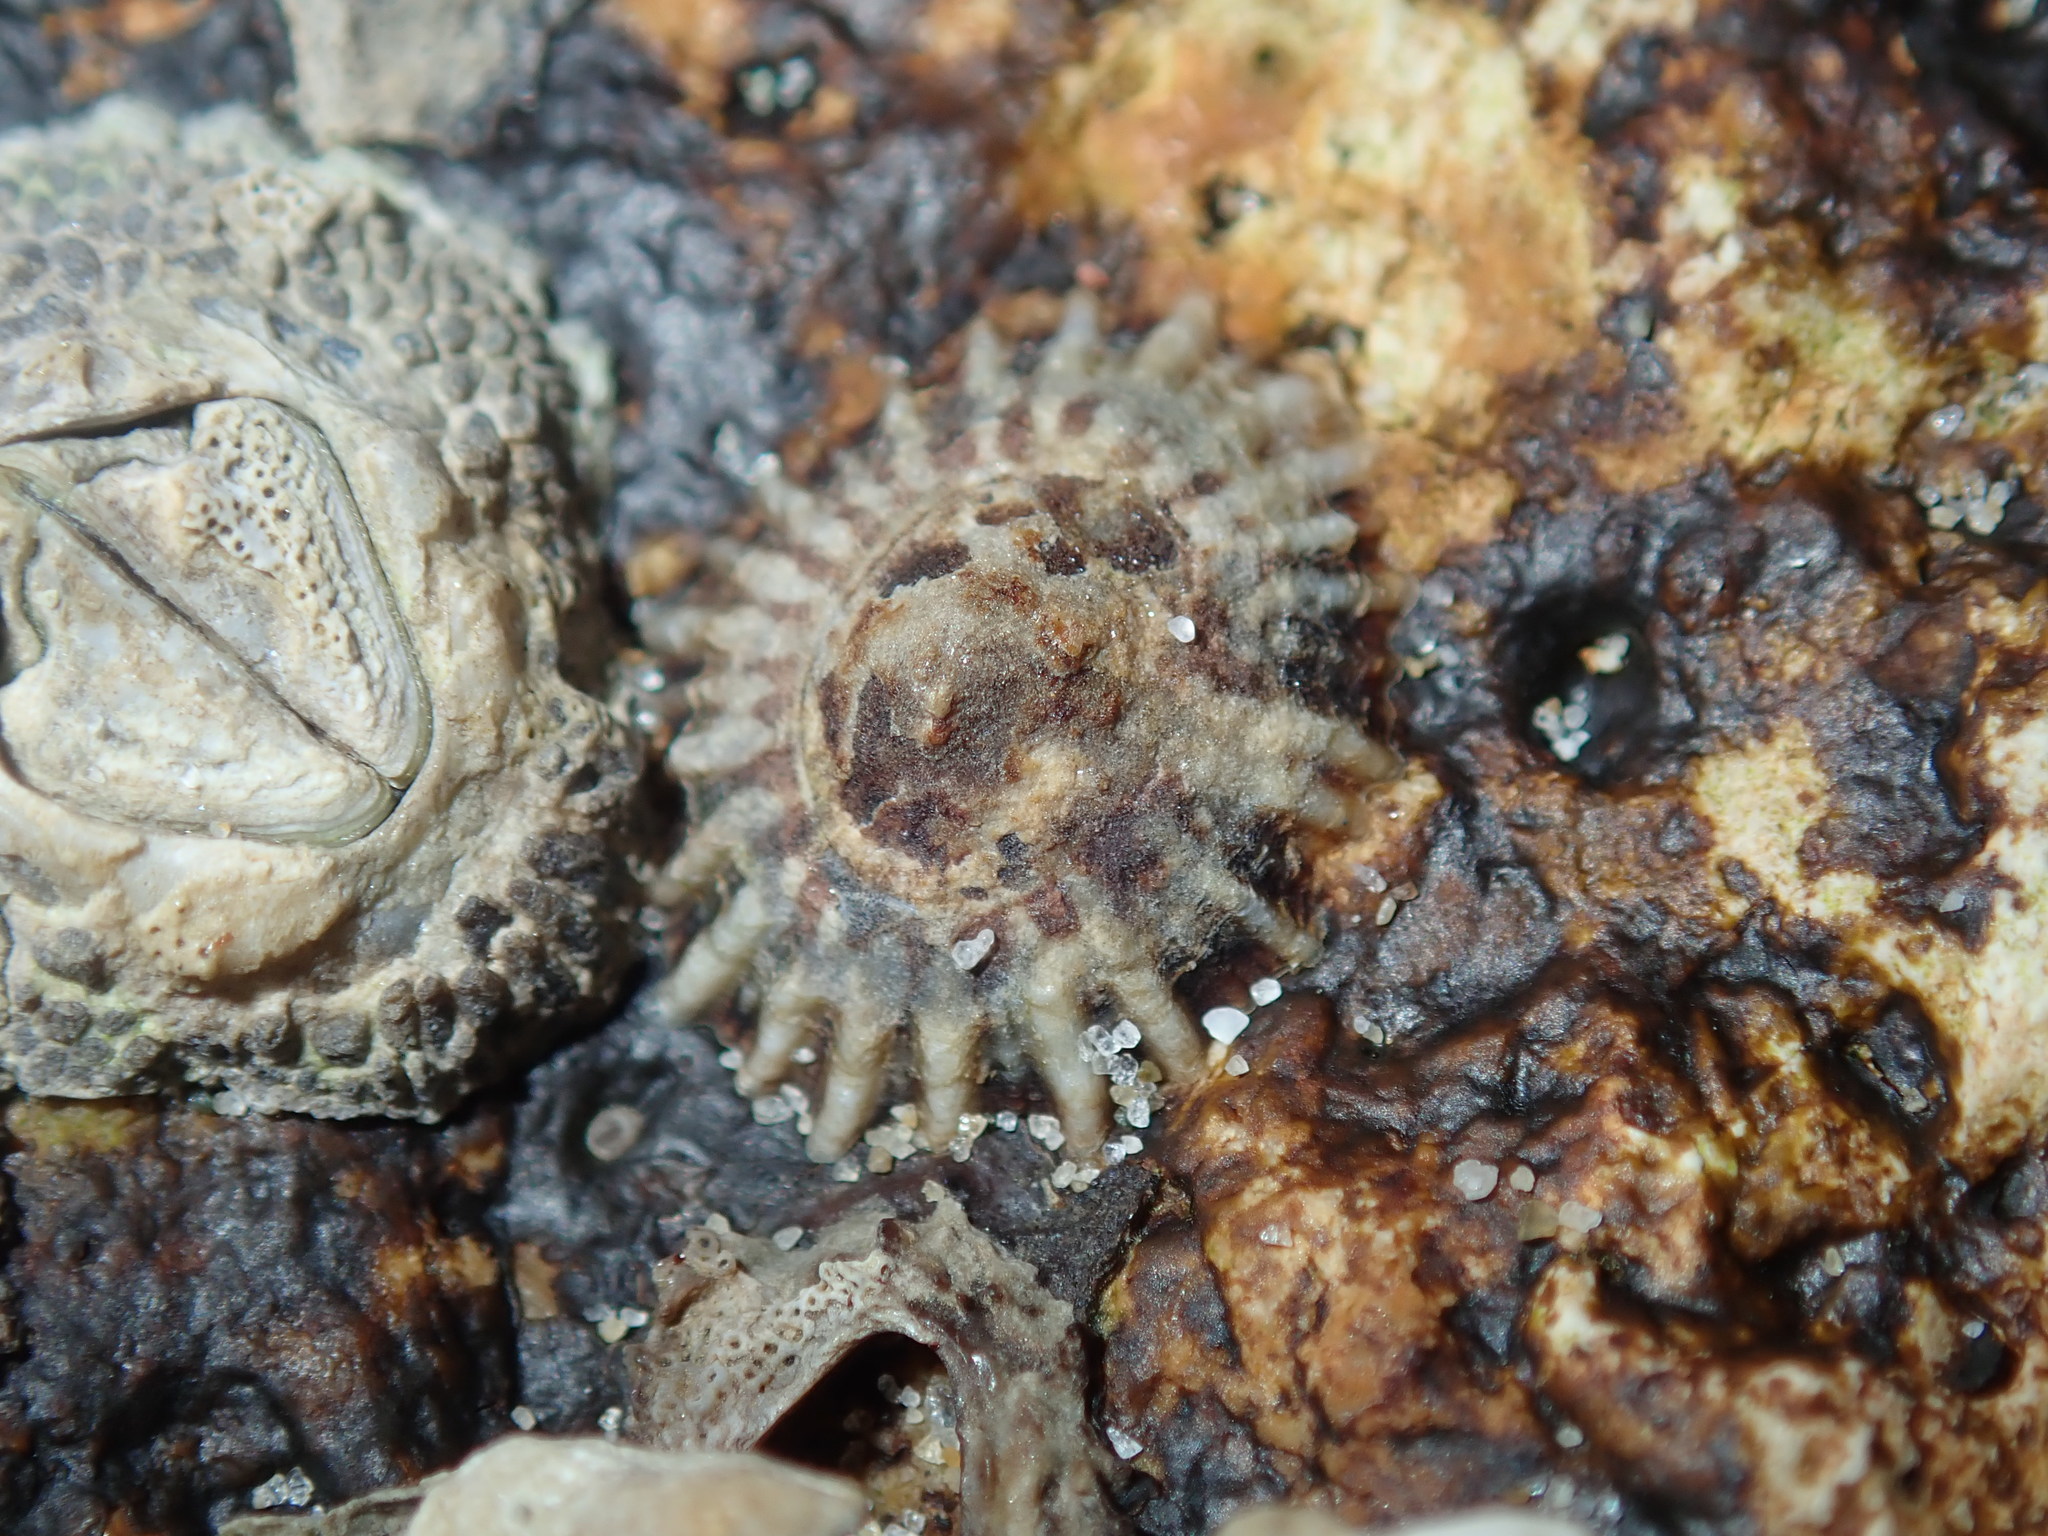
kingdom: Animalia
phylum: Mollusca
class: Gastropoda
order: Siphonariida
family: Siphonariidae
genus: Siphonaria
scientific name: Siphonaria denticulata
